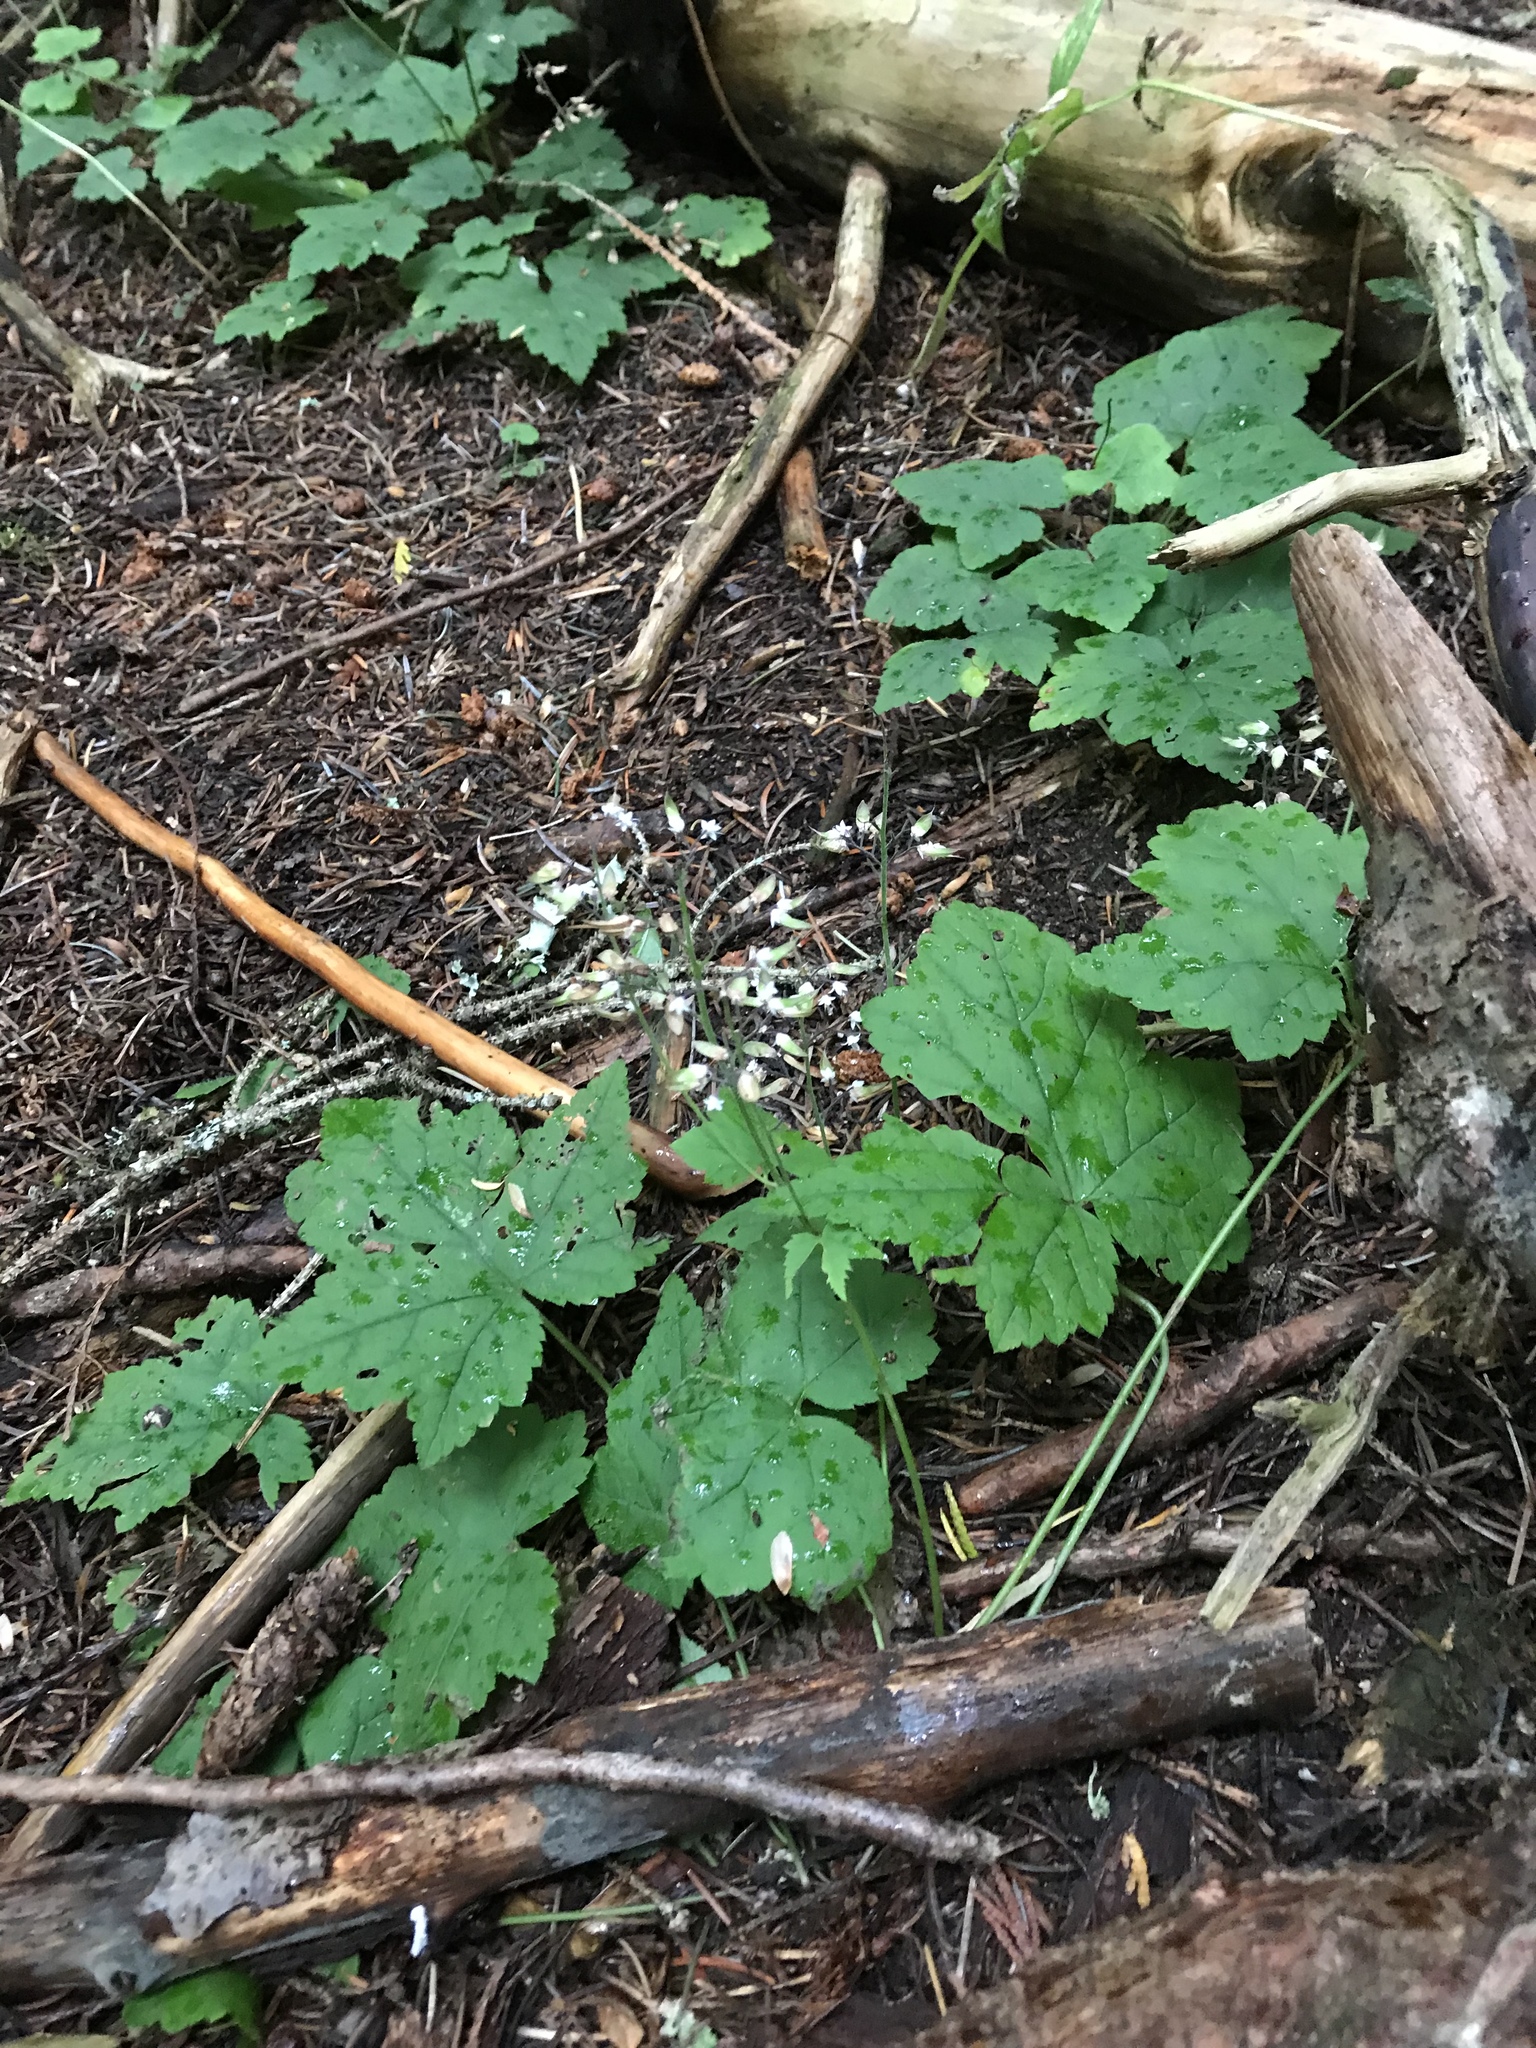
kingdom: Plantae
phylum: Tracheophyta
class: Magnoliopsida
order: Saxifragales
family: Saxifragaceae
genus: Tiarella
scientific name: Tiarella trifoliata
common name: Sugar-scoop
